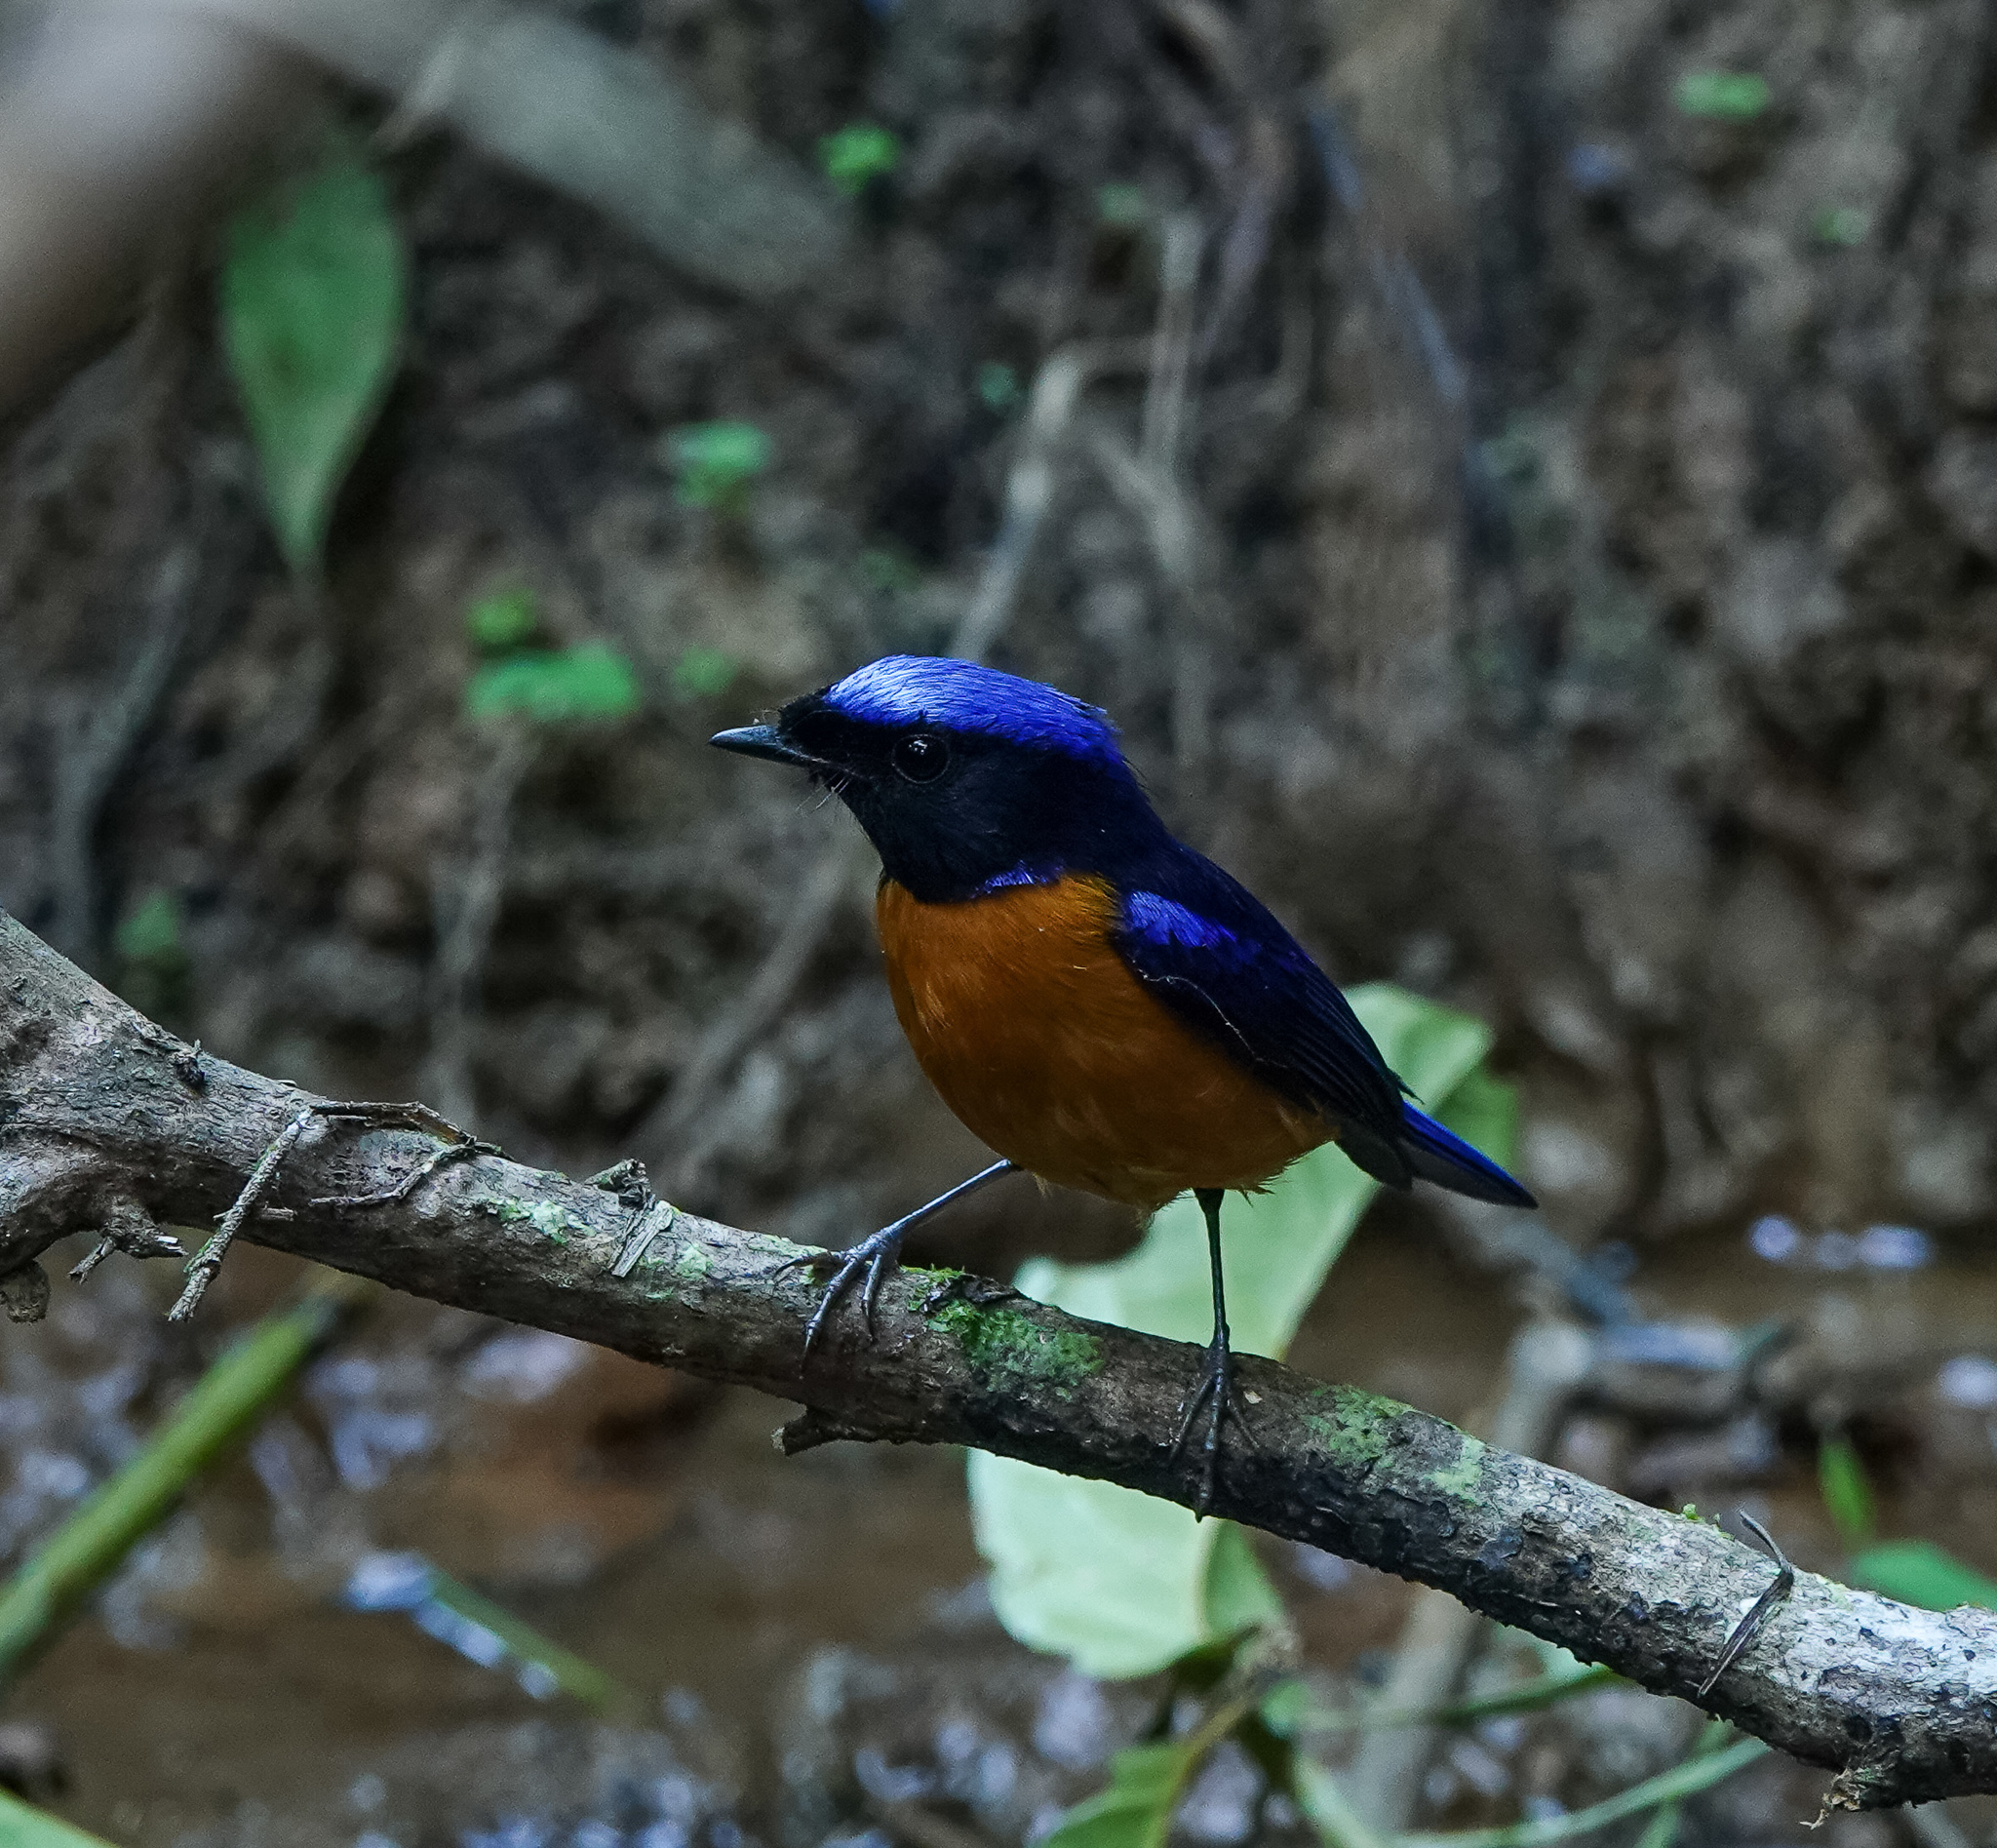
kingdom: Animalia
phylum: Chordata
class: Aves
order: Passeriformes
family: Muscicapidae
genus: Niltava
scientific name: Niltava sundara
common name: Rufous-bellied niltava
